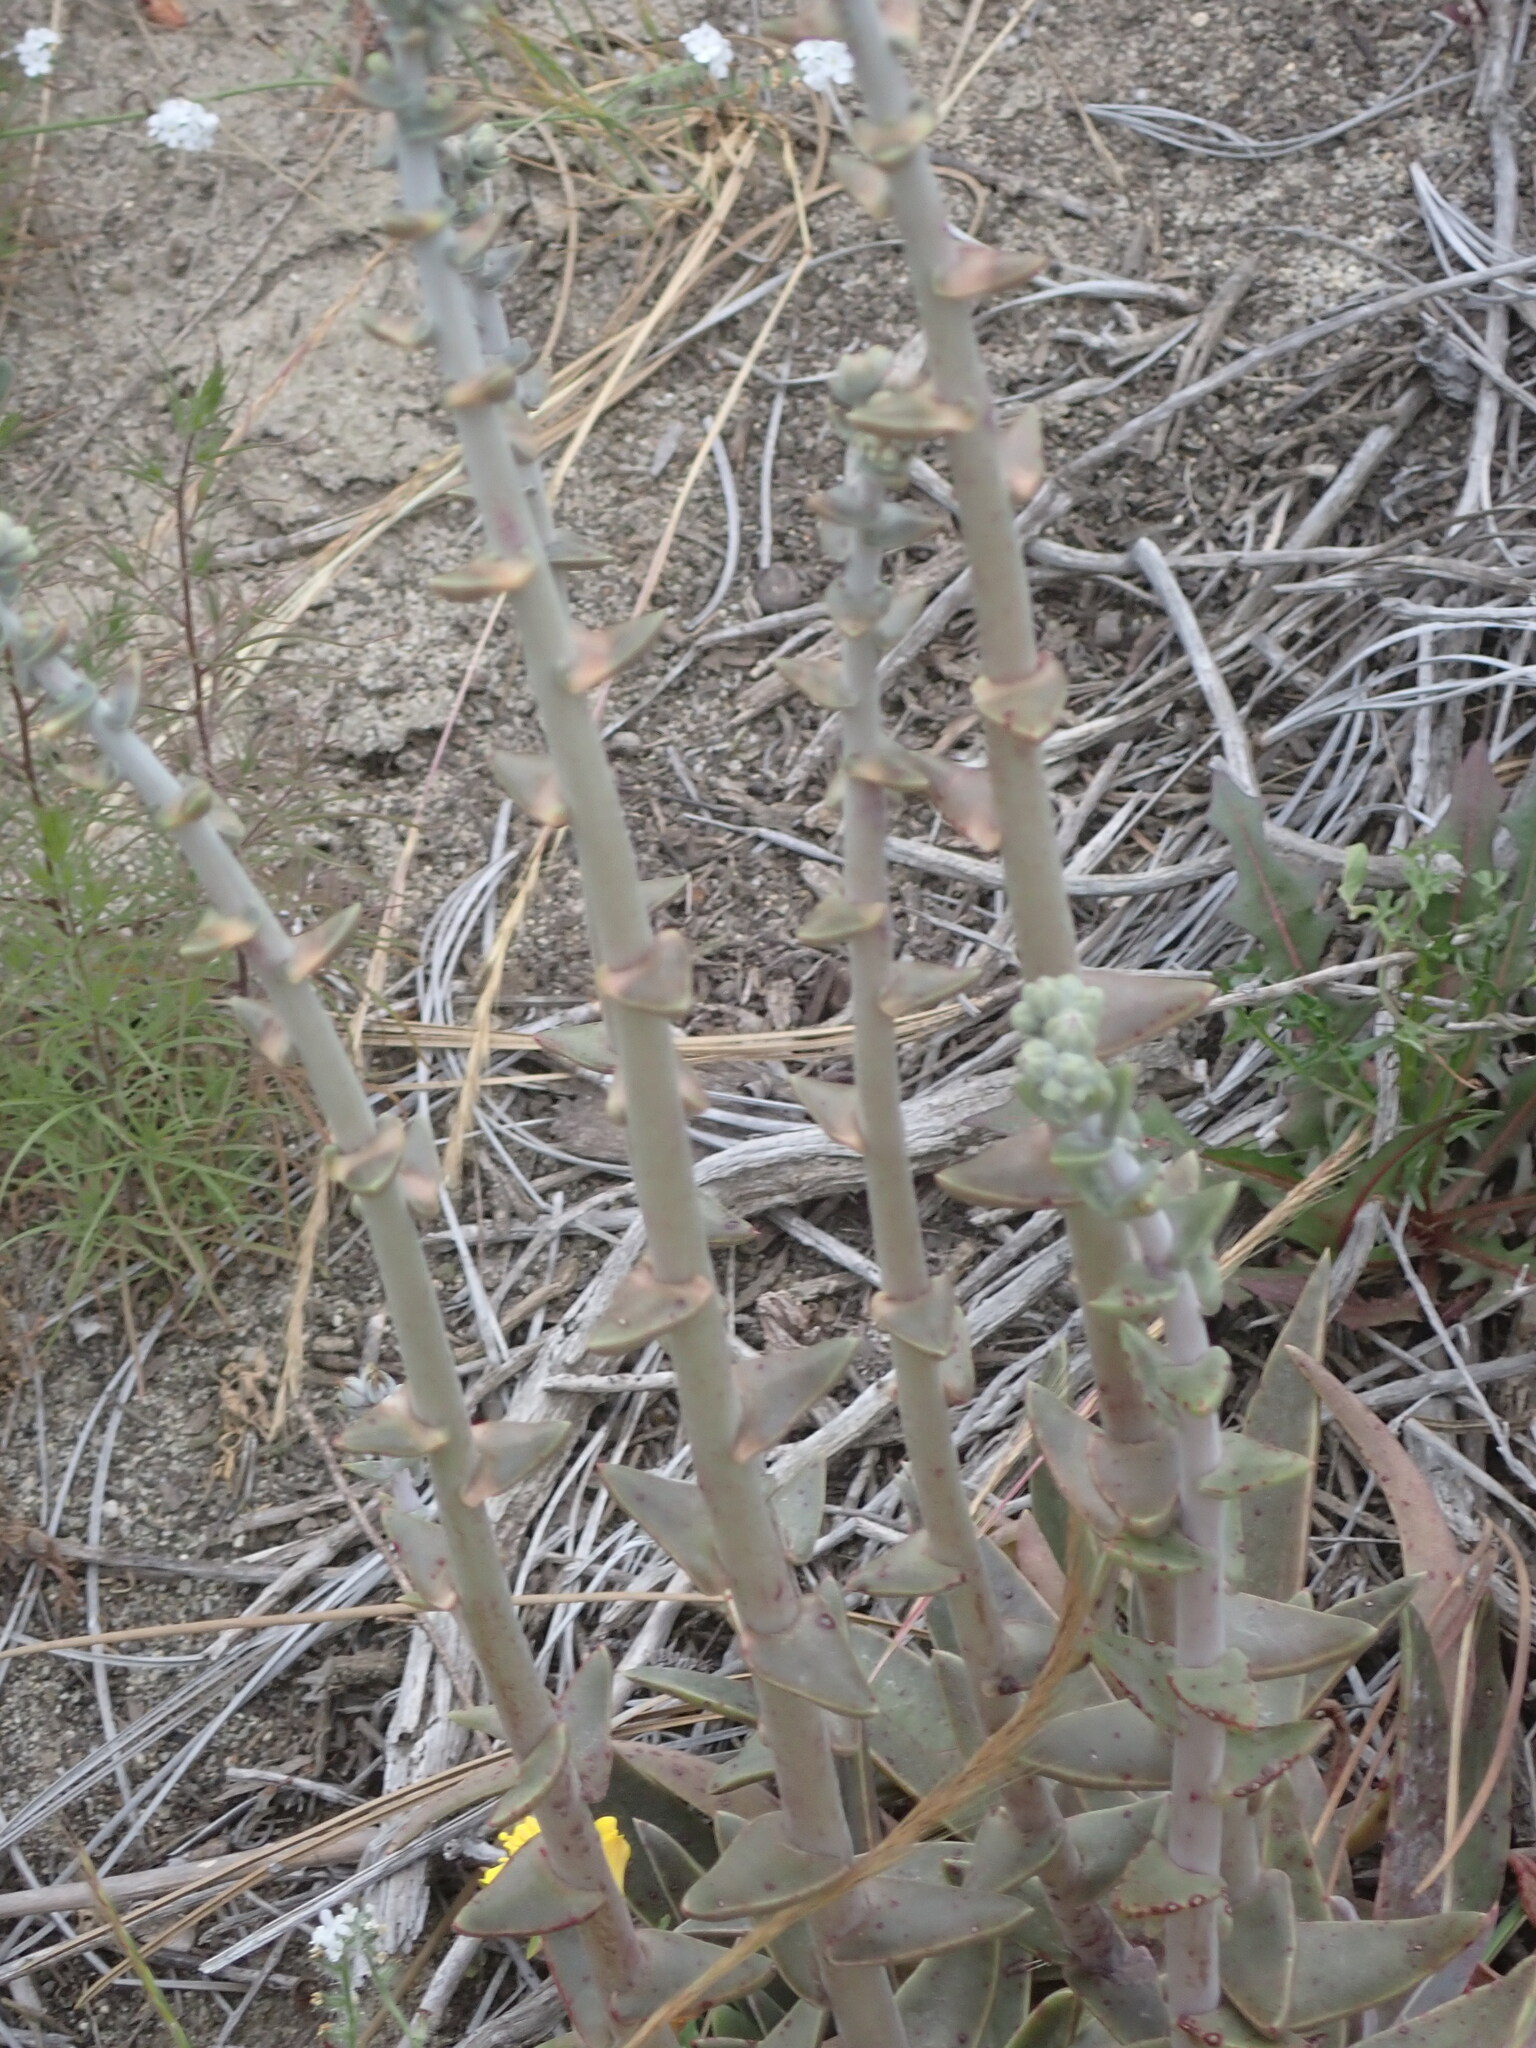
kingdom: Plantae
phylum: Tracheophyta
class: Magnoliopsida
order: Saxifragales
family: Crassulaceae
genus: Dudleya
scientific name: Dudleya lanceolata
